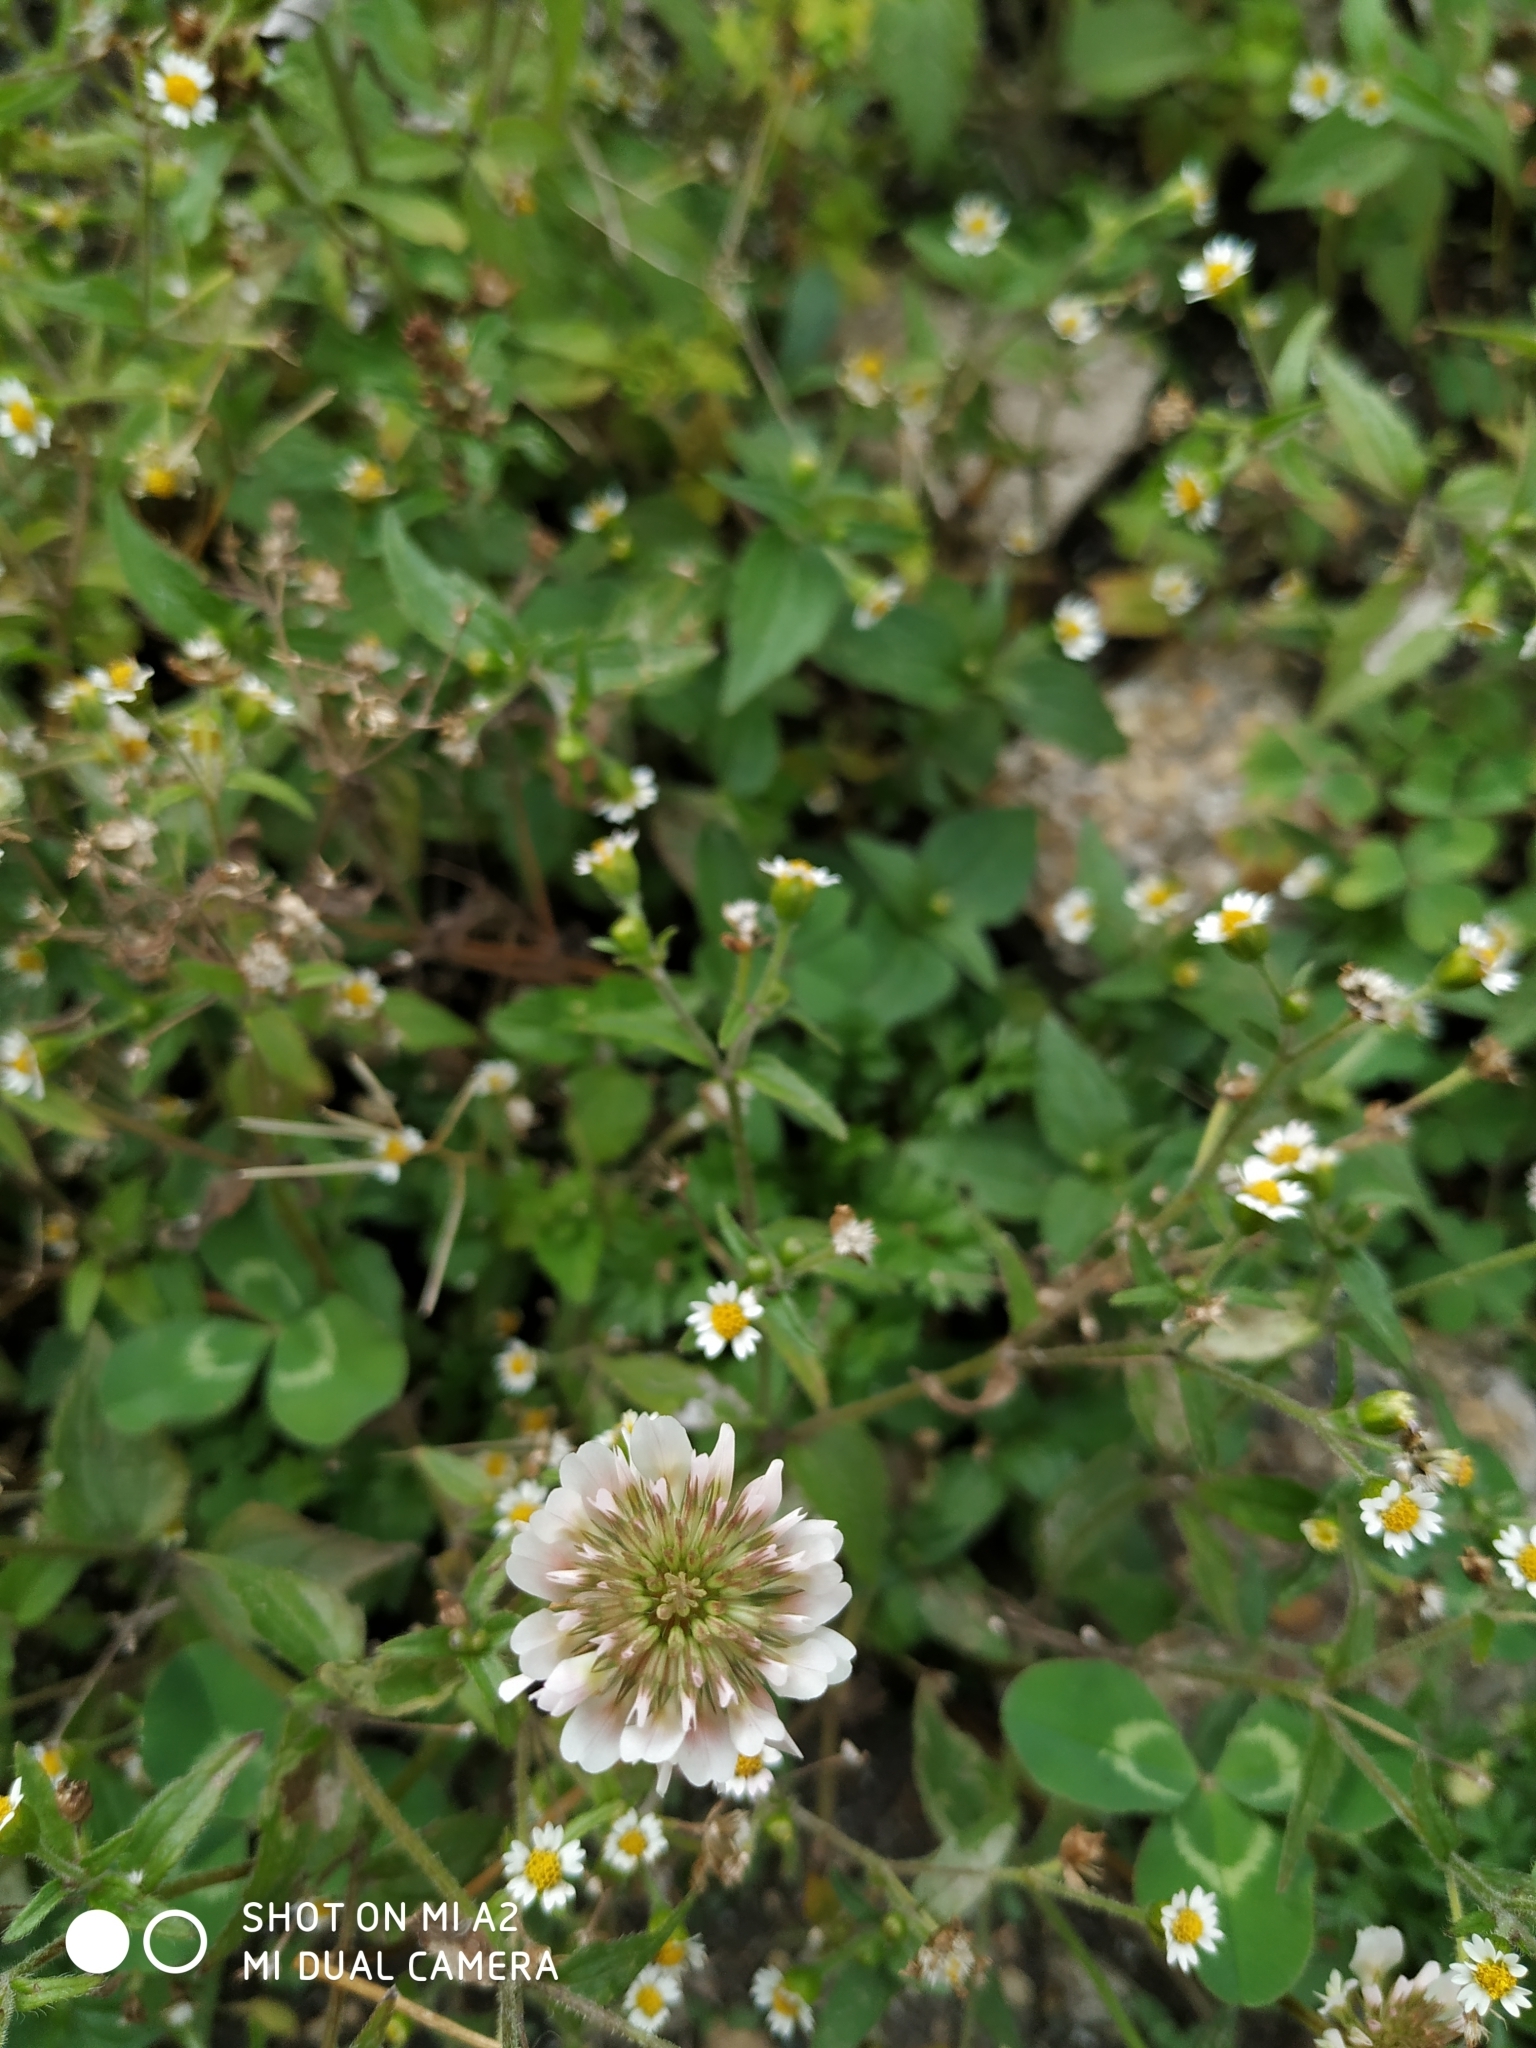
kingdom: Plantae
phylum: Tracheophyta
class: Magnoliopsida
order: Fabales
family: Fabaceae
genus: Trifolium
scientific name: Trifolium repens
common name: White clover
